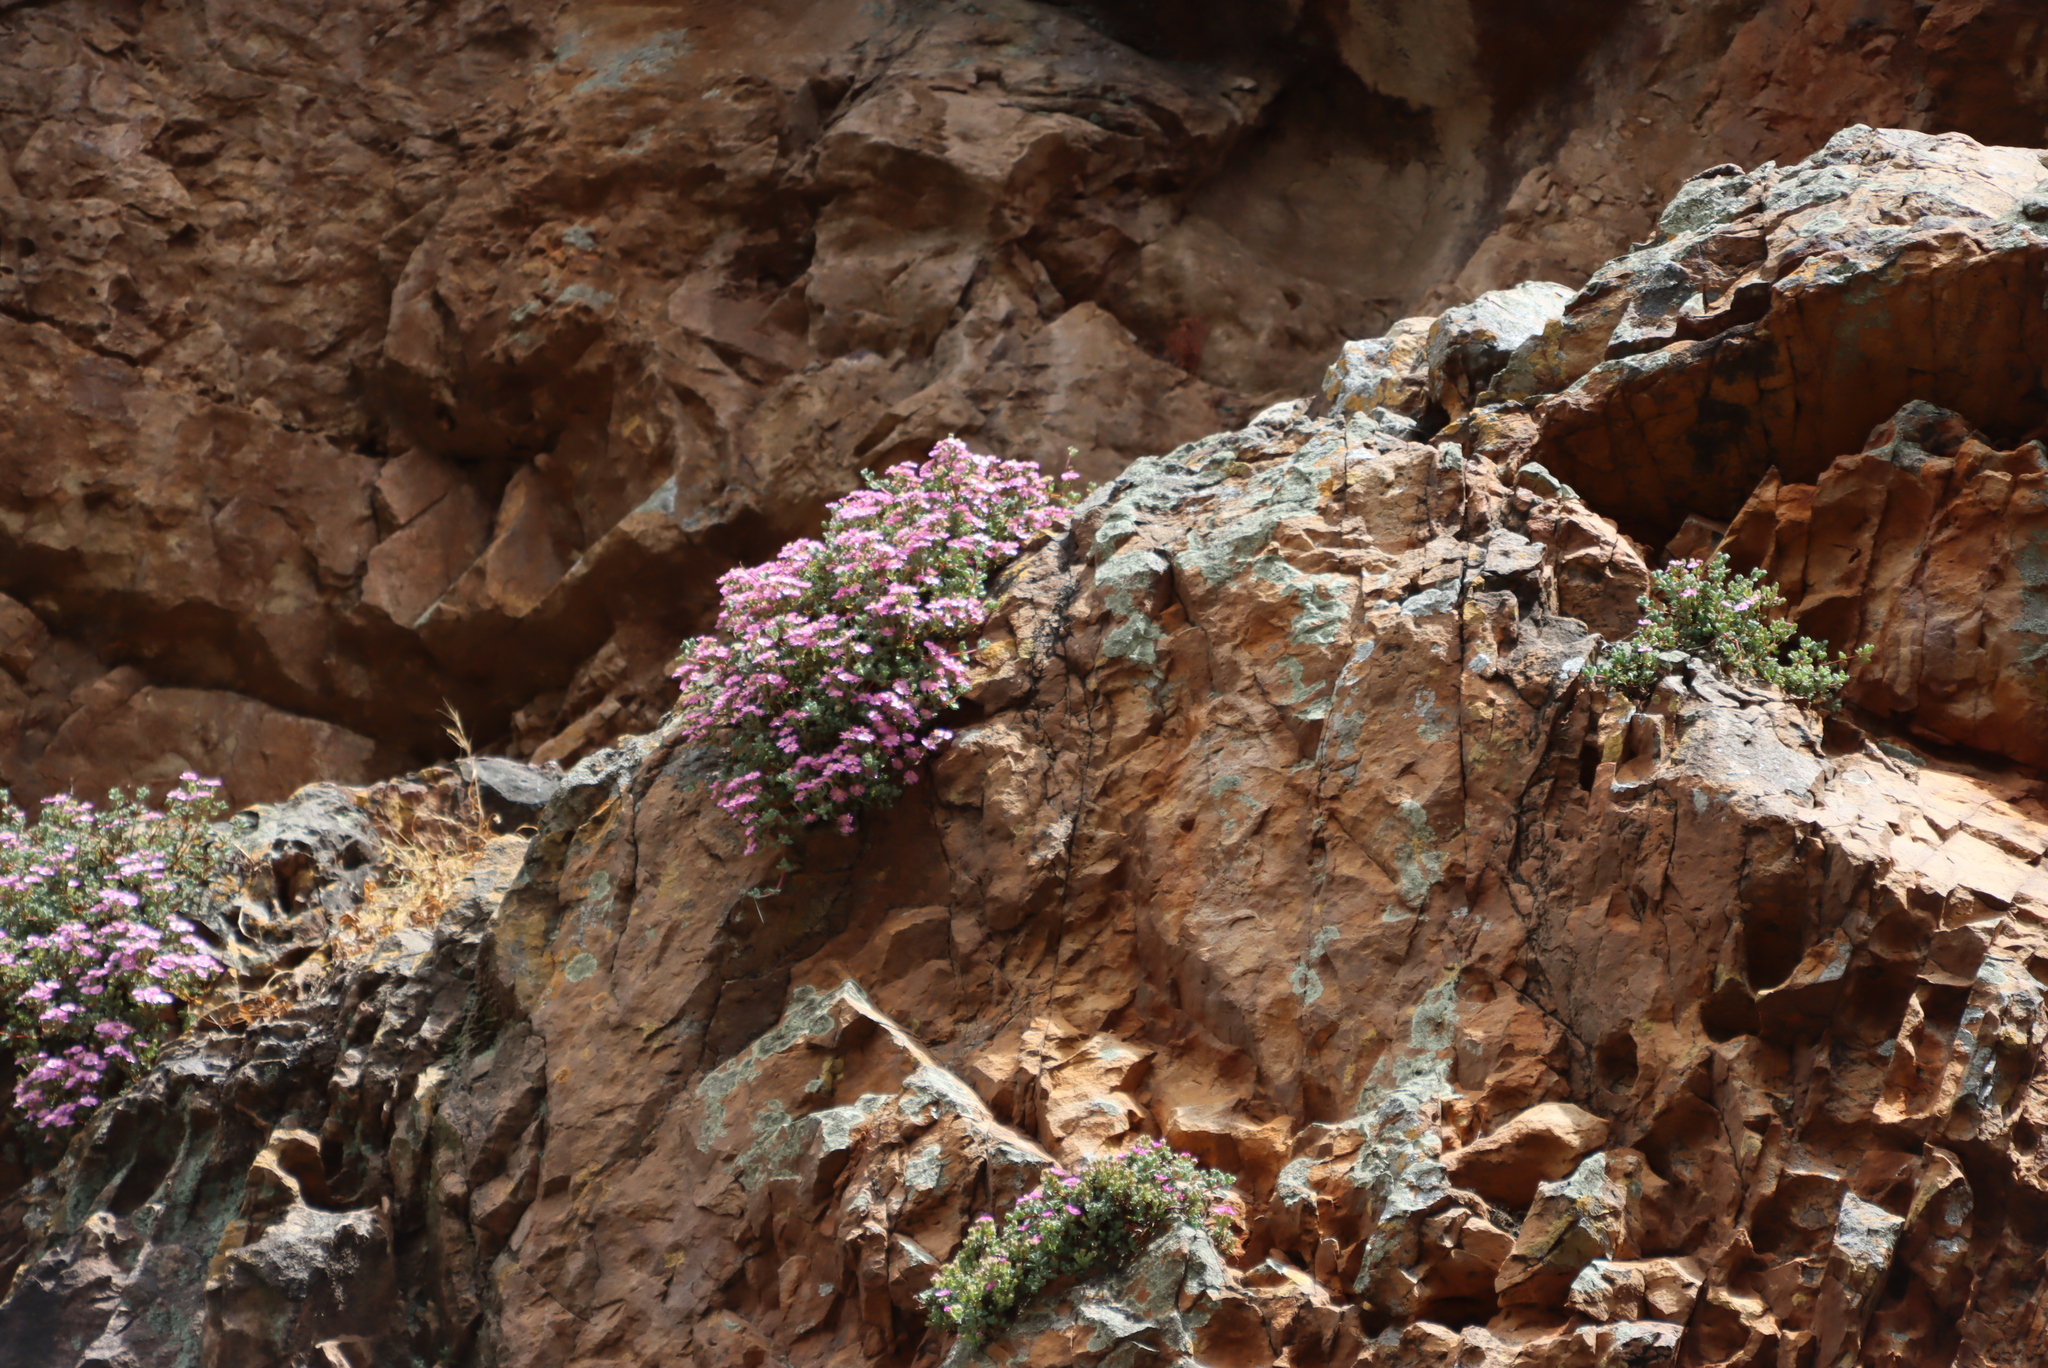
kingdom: Plantae
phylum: Tracheophyta
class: Magnoliopsida
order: Caryophyllales
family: Aizoaceae
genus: Oscularia
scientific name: Oscularia deltoides
